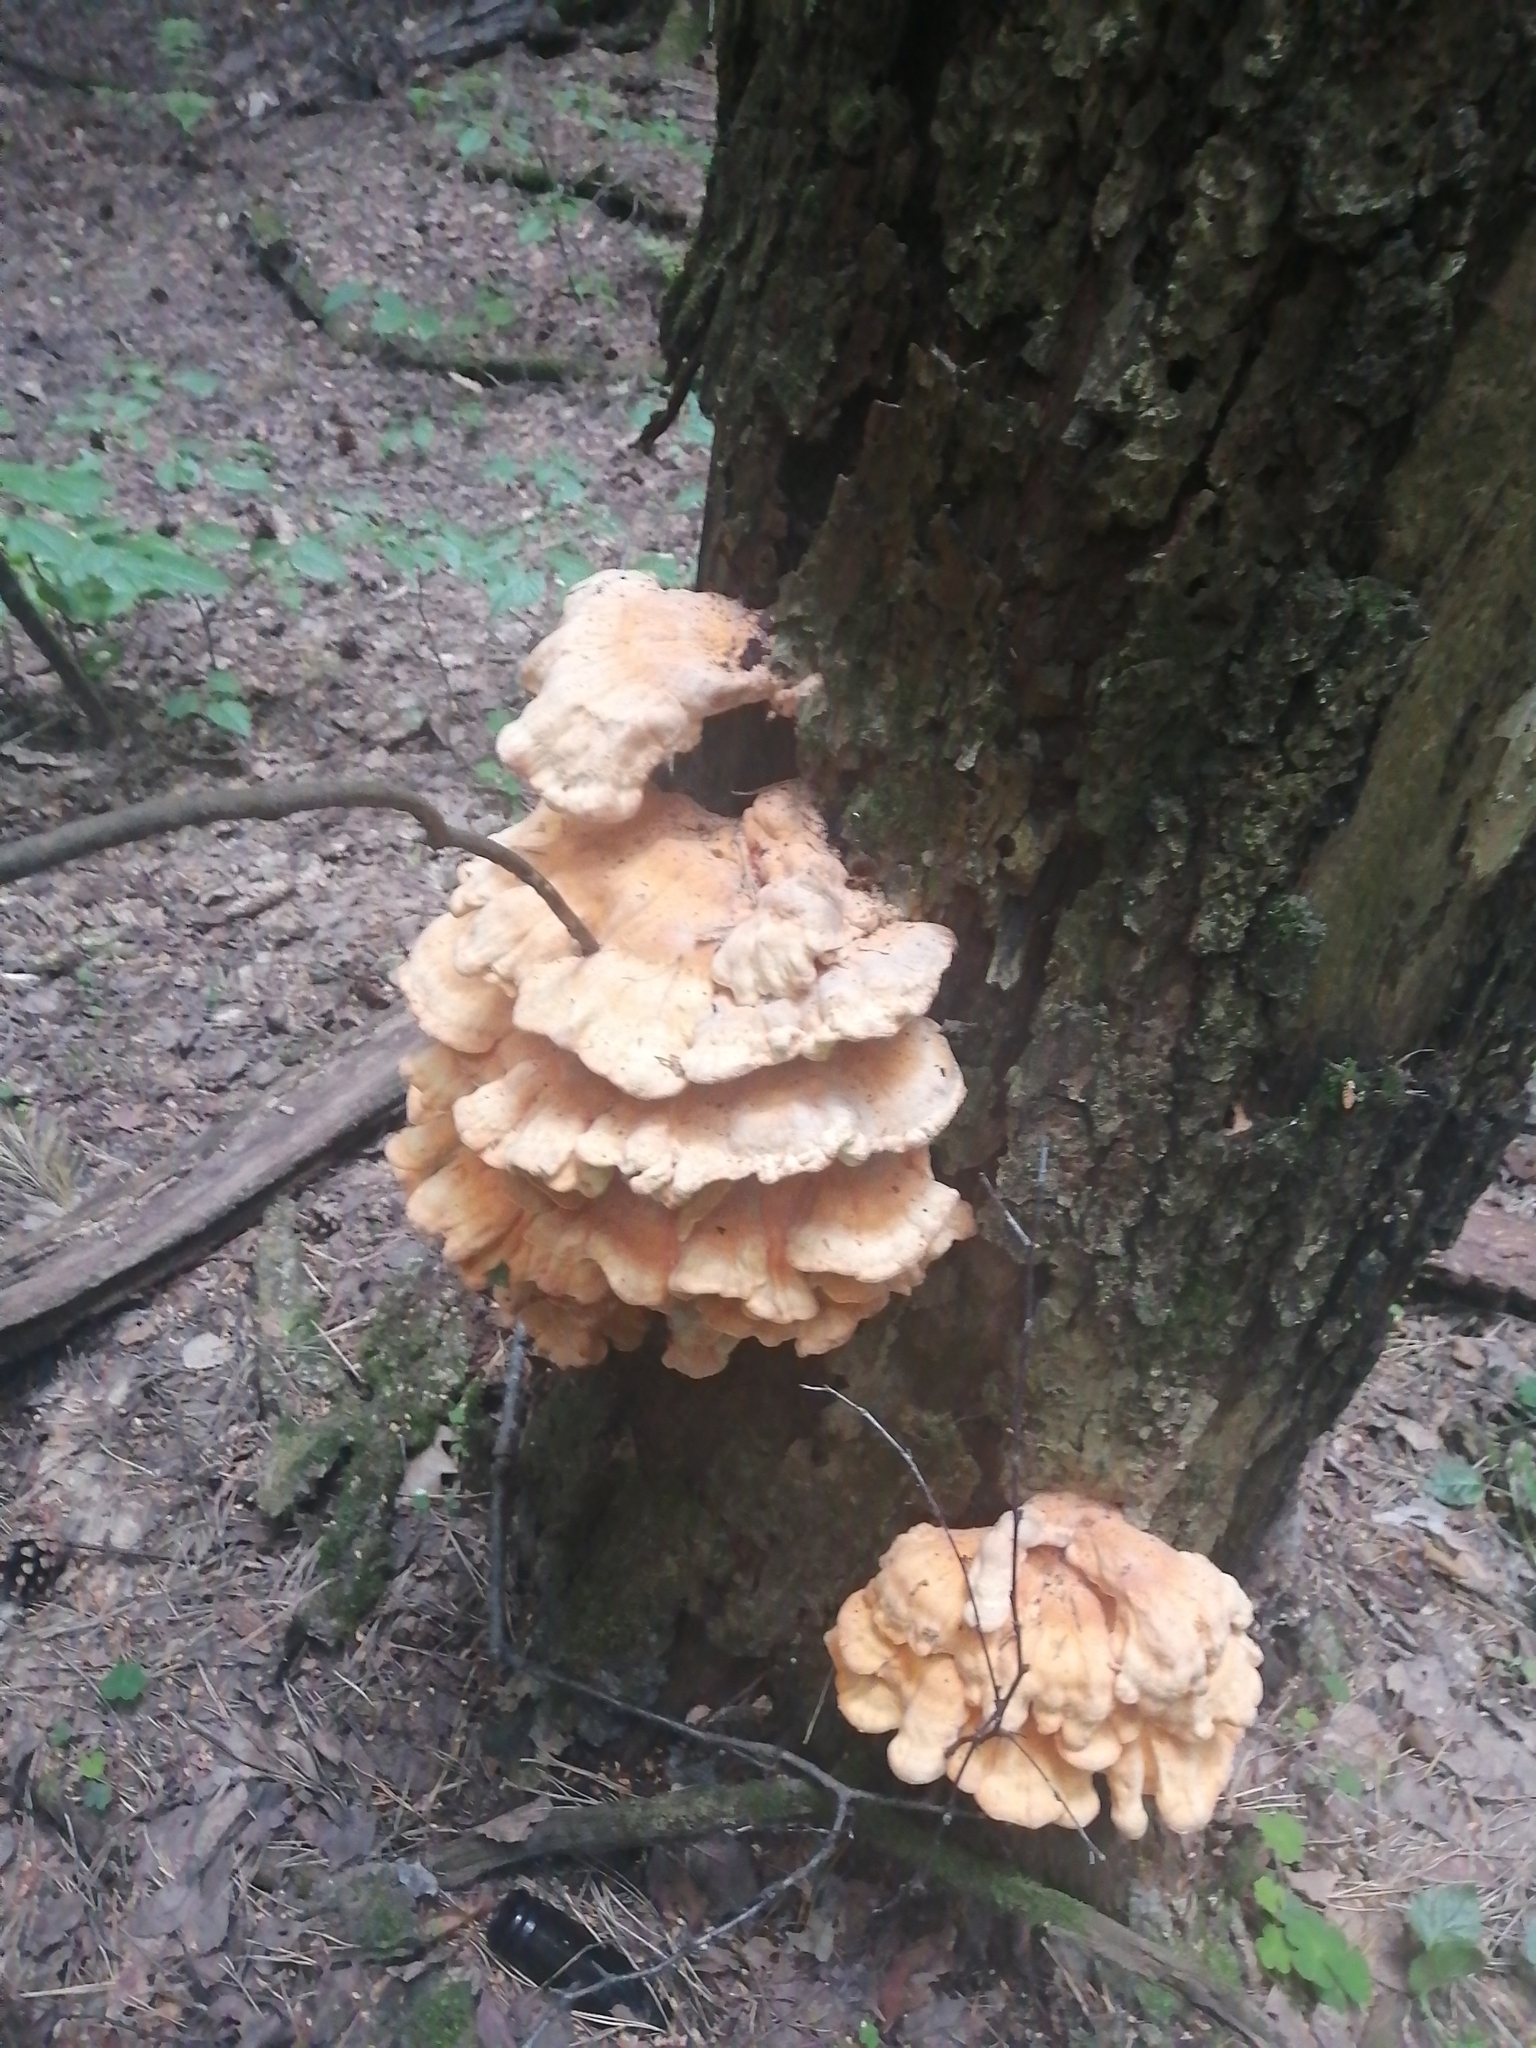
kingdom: Fungi
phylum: Basidiomycota
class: Agaricomycetes
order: Polyporales
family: Laetiporaceae
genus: Laetiporus
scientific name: Laetiporus sulphureus
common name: Chicken of the woods
